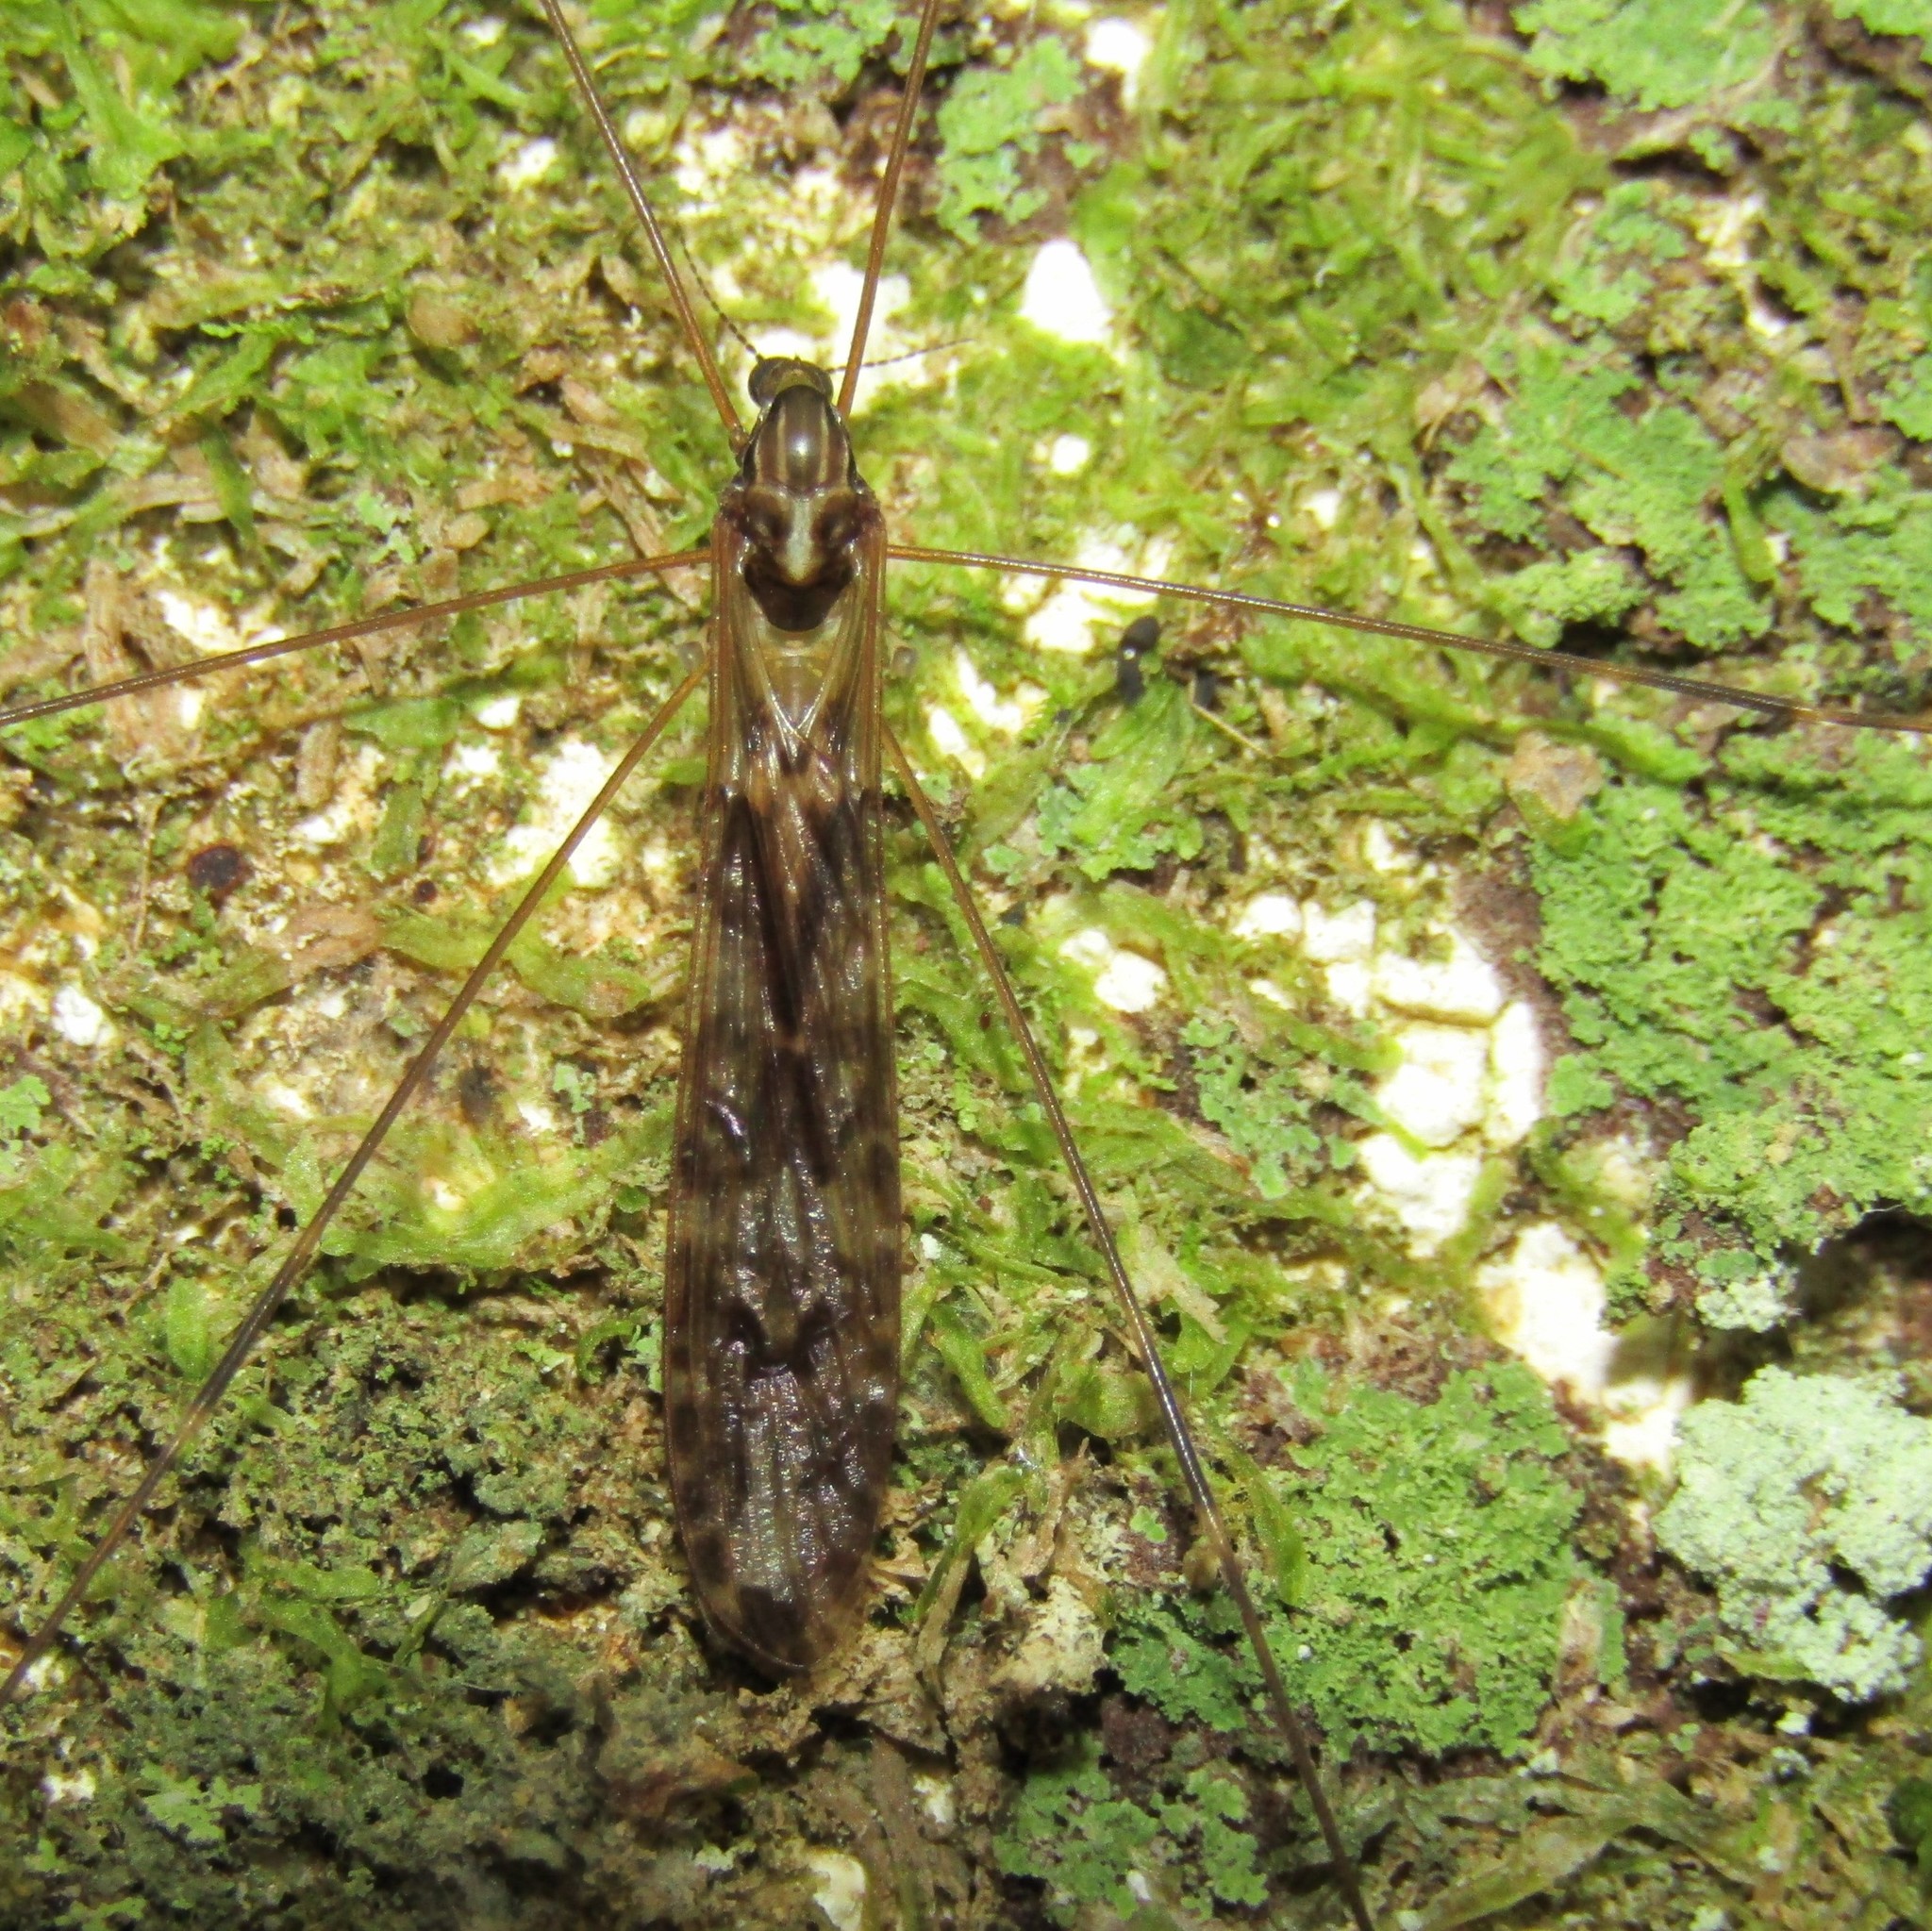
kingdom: Animalia
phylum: Arthropoda
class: Insecta
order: Diptera
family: Limoniidae
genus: Discobola
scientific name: Discobola dohrni
